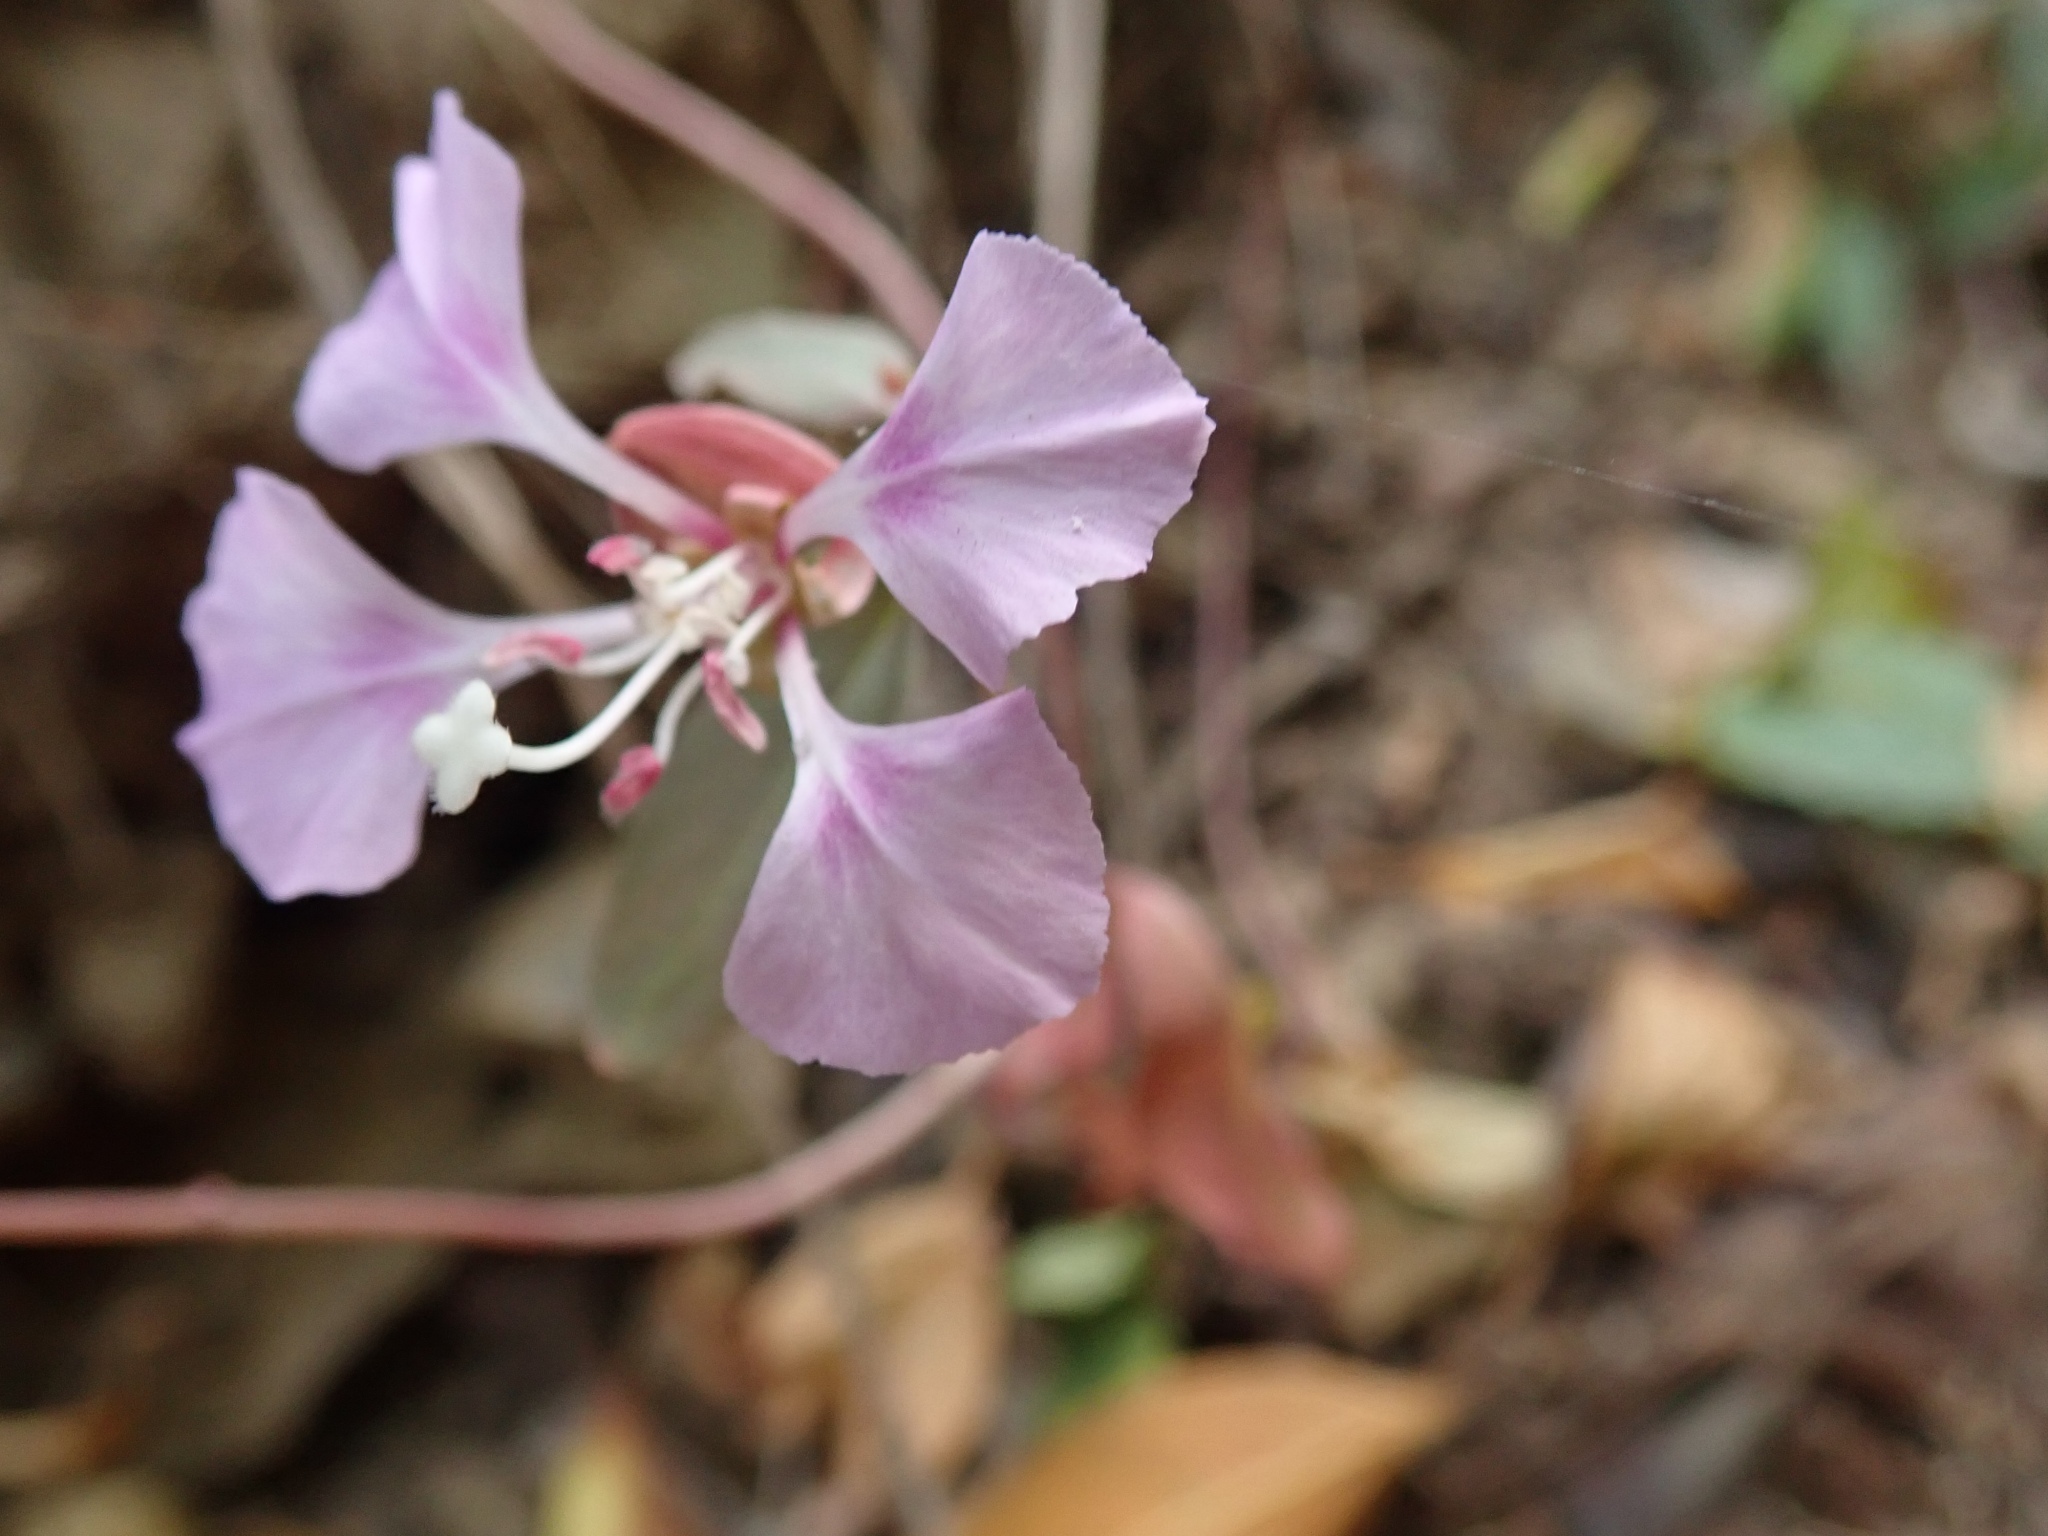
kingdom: Plantae
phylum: Tracheophyta
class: Magnoliopsida
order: Myrtales
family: Onagraceae
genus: Clarkia
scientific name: Clarkia unguiculata
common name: Clarkia
